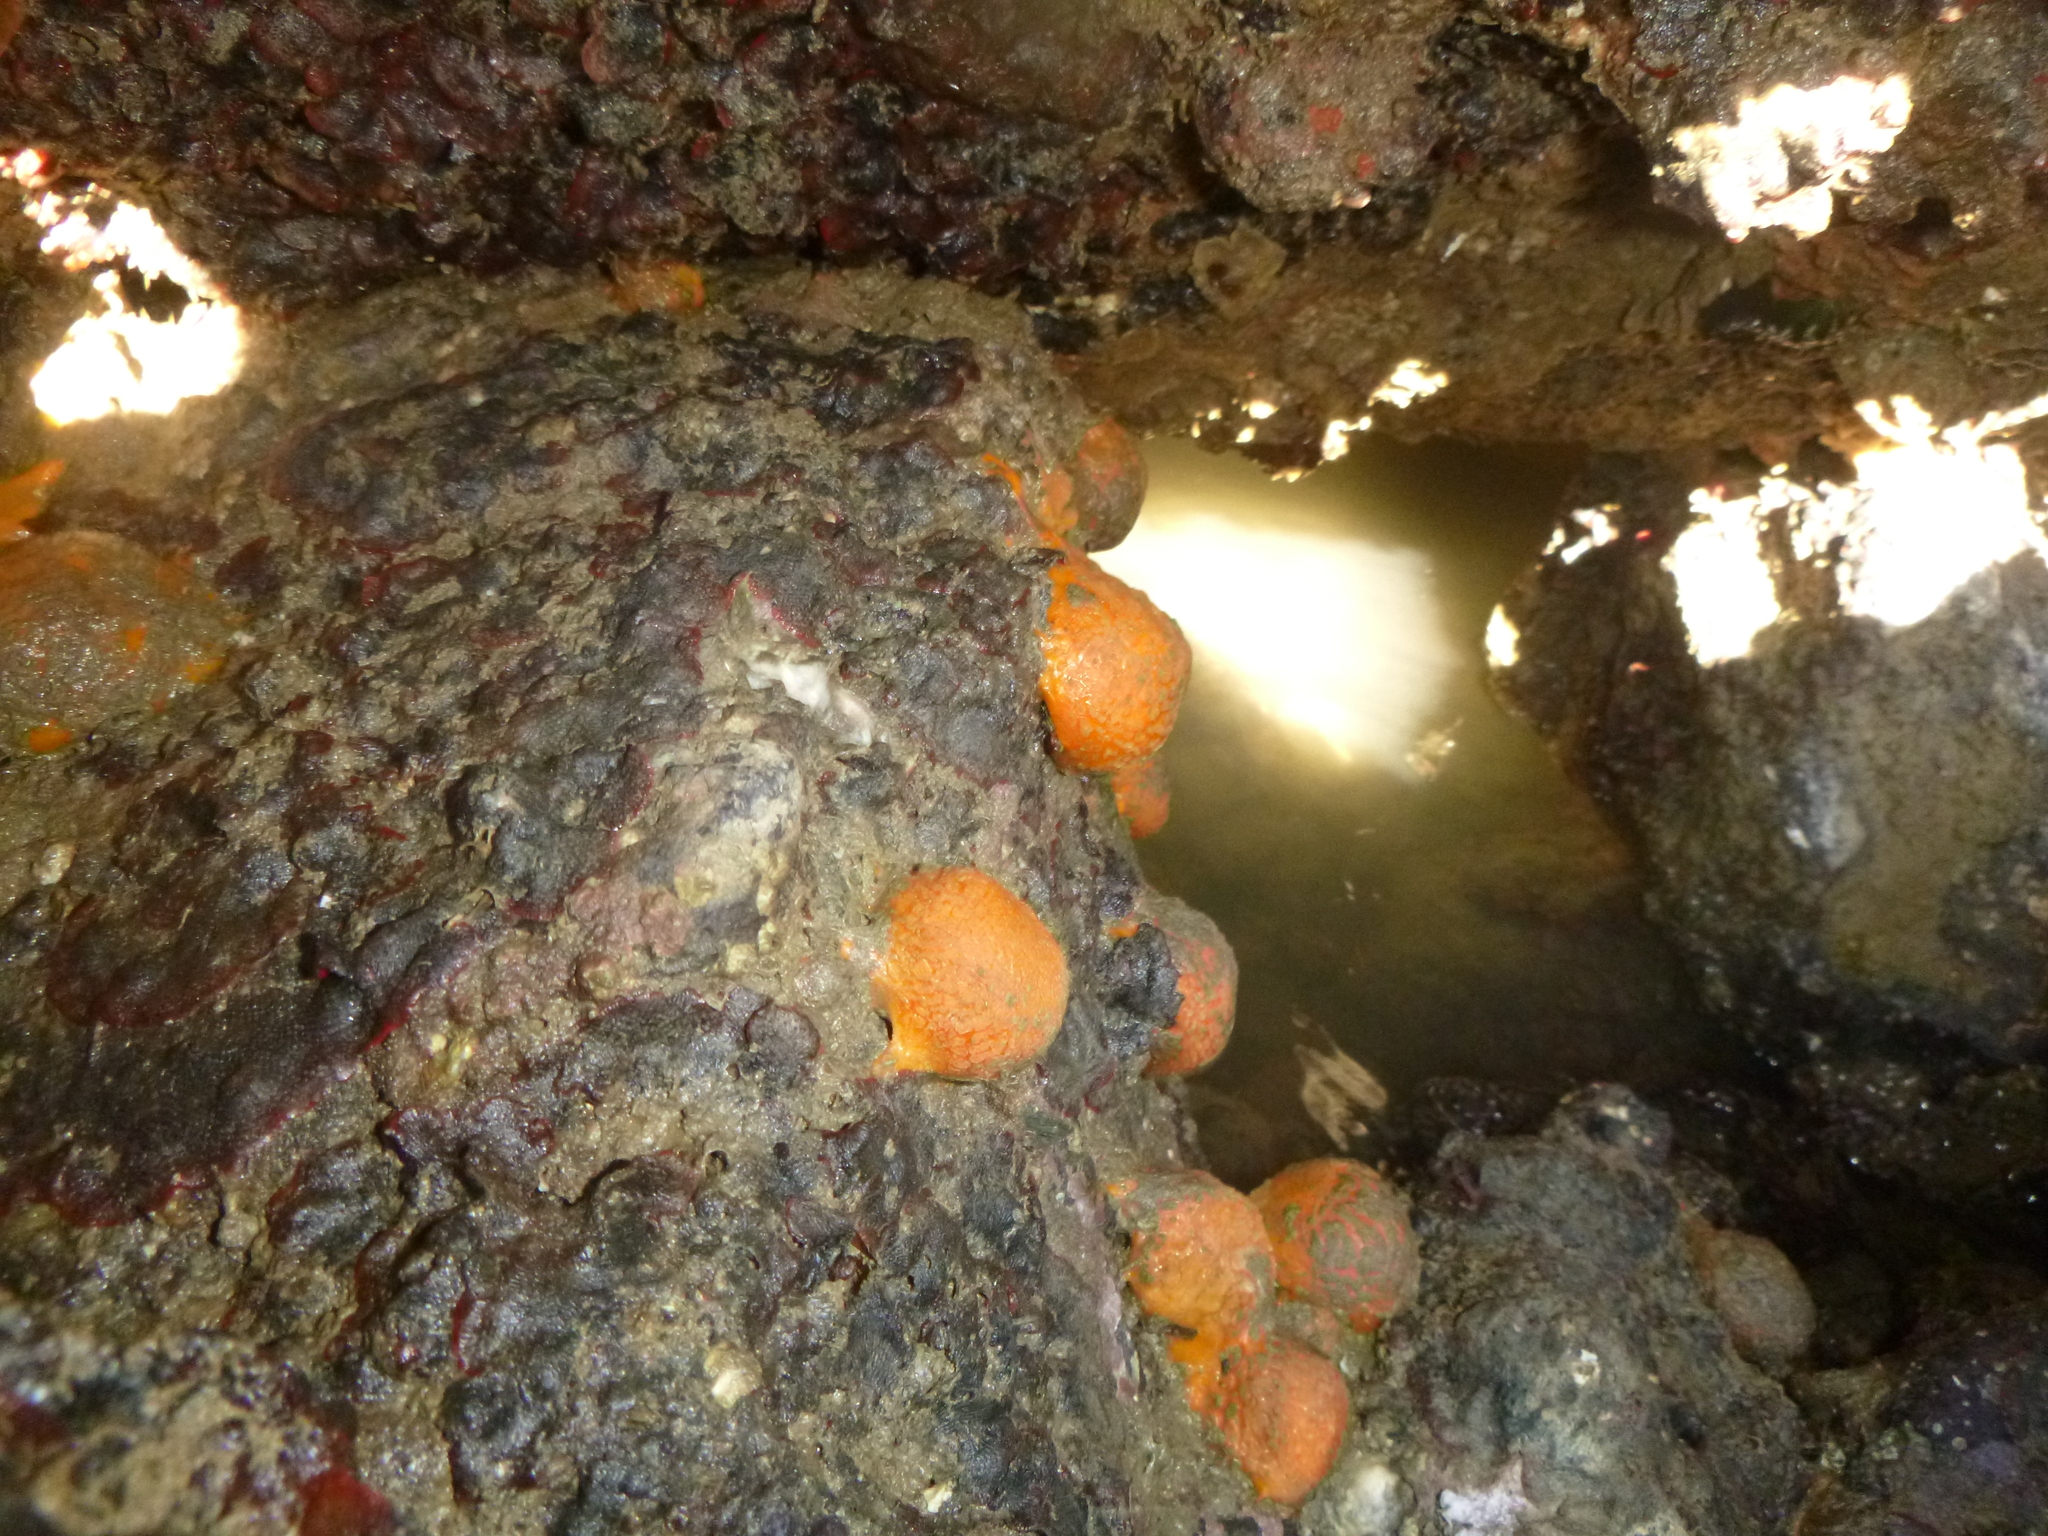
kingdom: Animalia
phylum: Porifera
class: Demospongiae
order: Tethyida
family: Tethyidae
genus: Tethya
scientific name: Tethya burtoni
